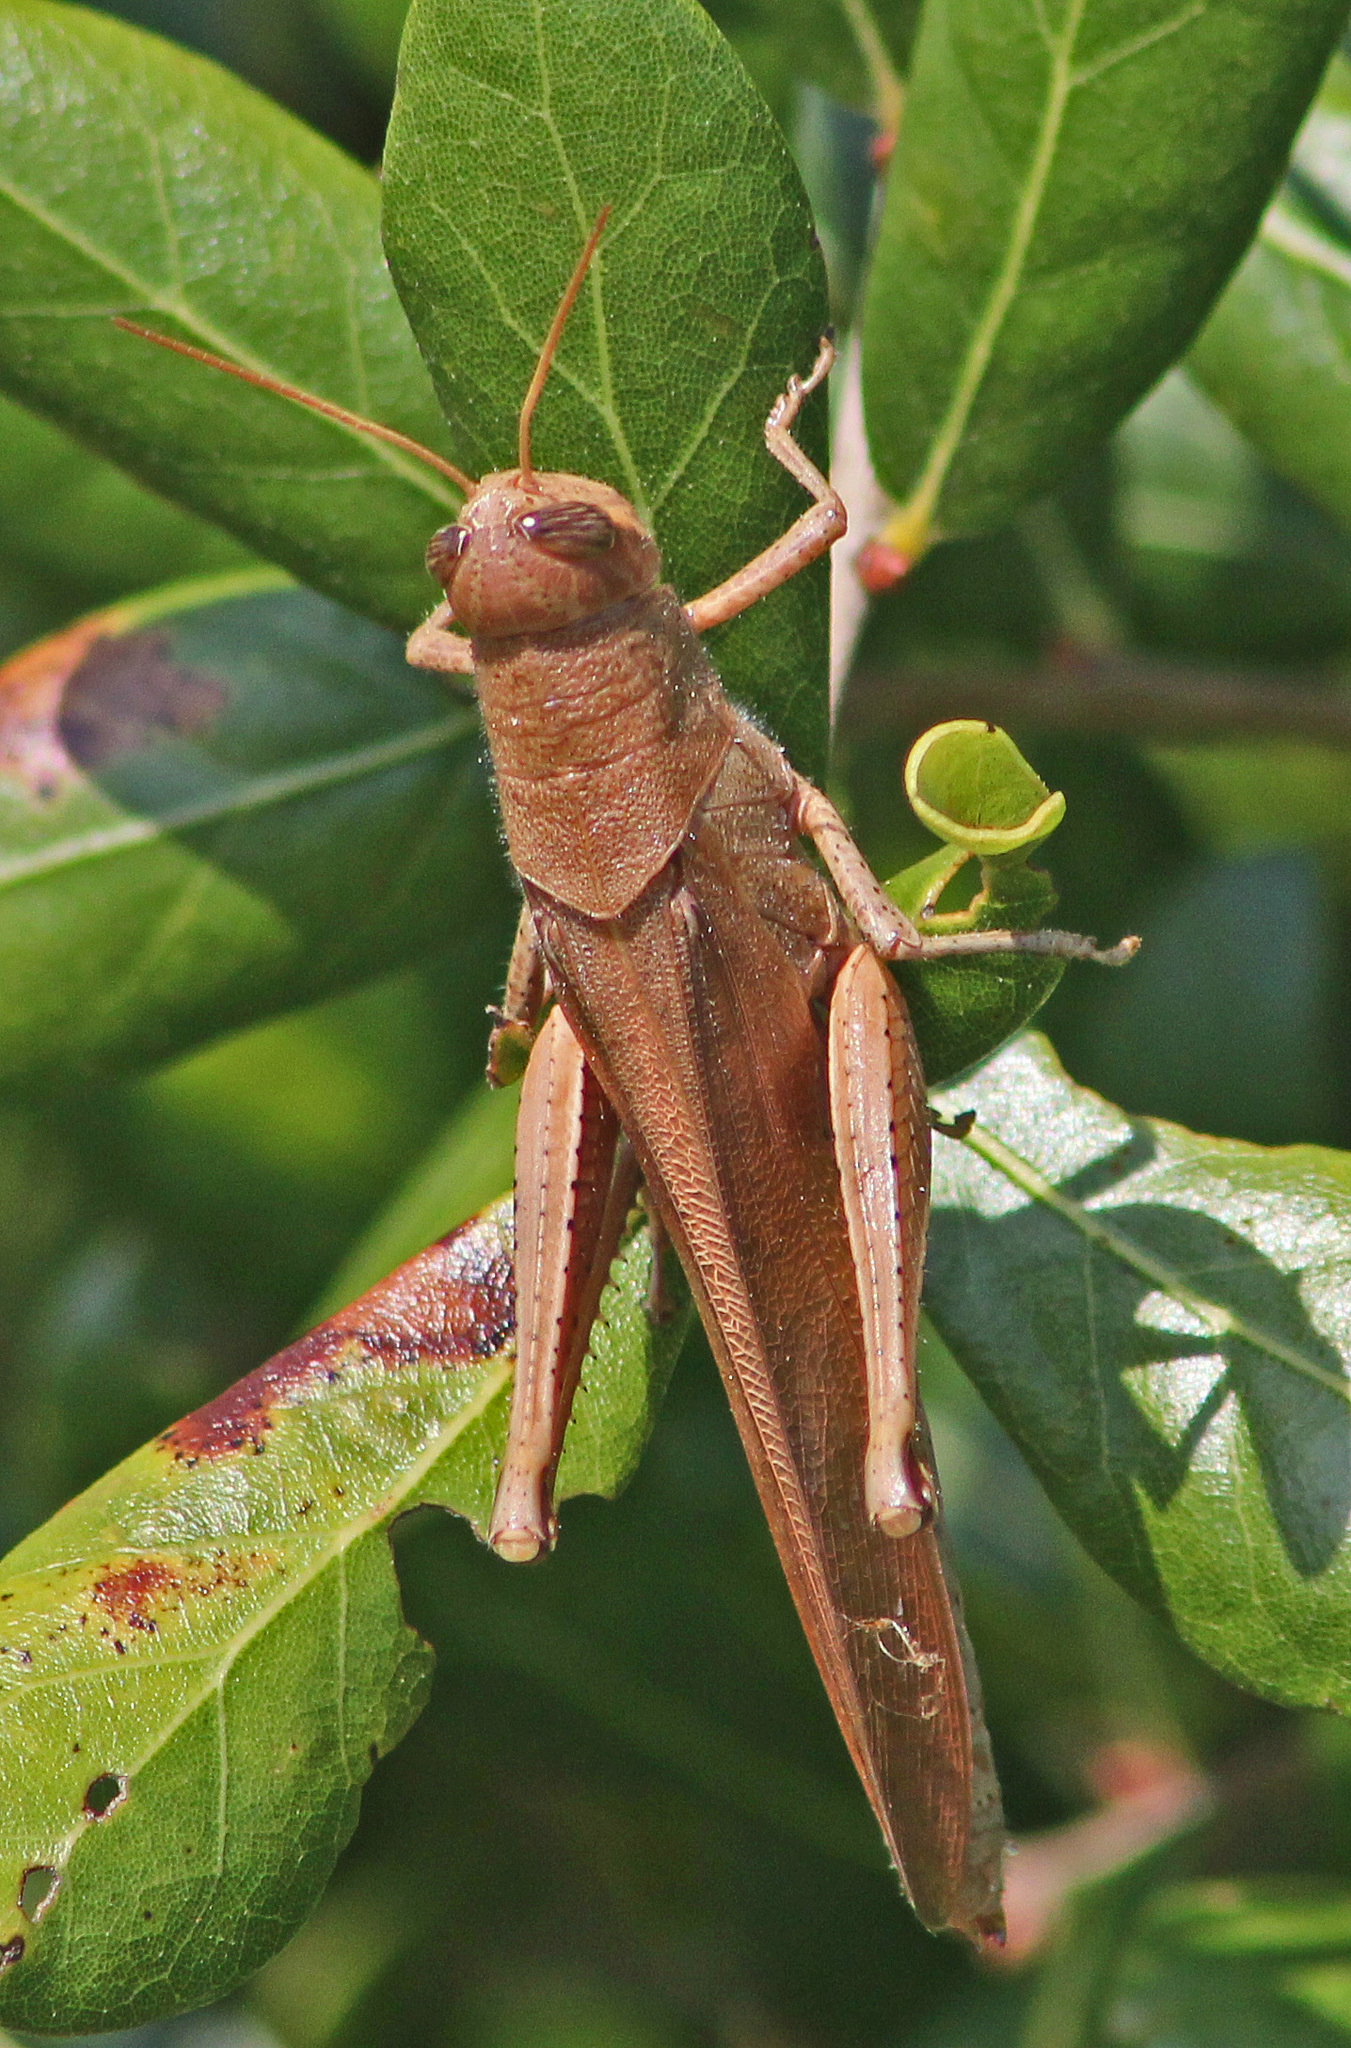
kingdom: Animalia
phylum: Arthropoda
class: Insecta
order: Orthoptera
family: Acrididae
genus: Schistocerca
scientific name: Schistocerca rubiginosa
